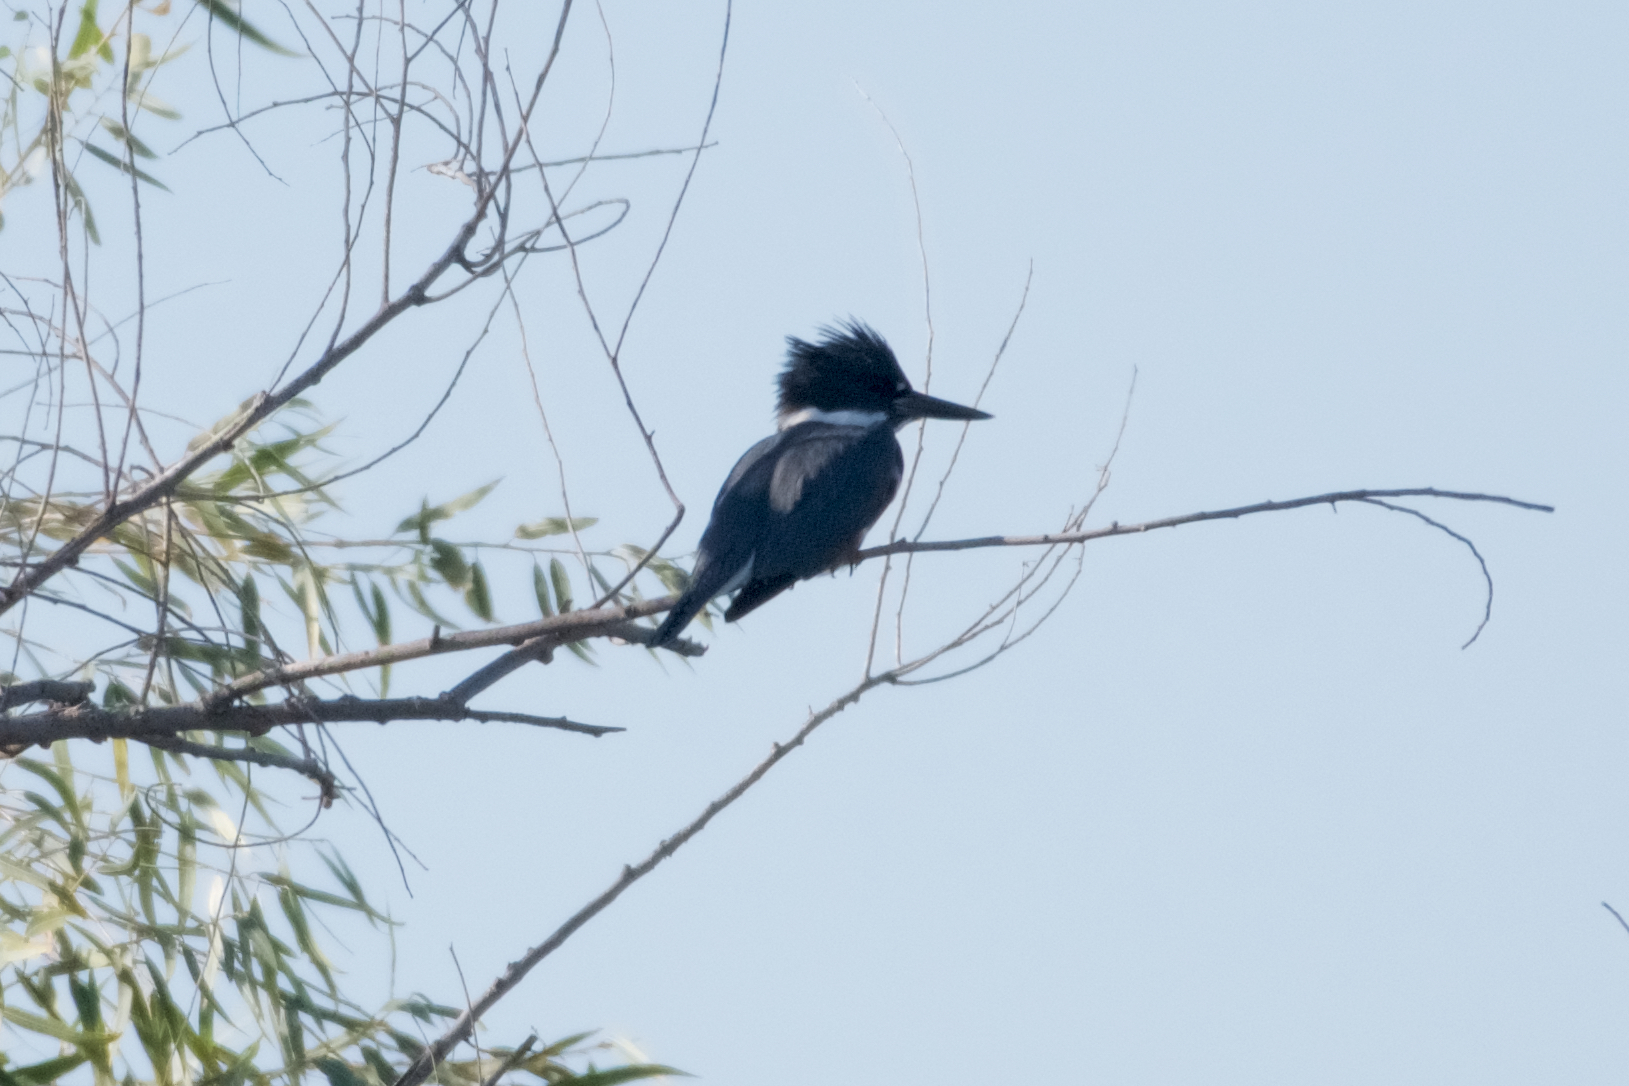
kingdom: Animalia
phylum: Chordata
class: Aves
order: Coraciiformes
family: Alcedinidae
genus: Megaceryle
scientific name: Megaceryle alcyon
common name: Belted kingfisher
